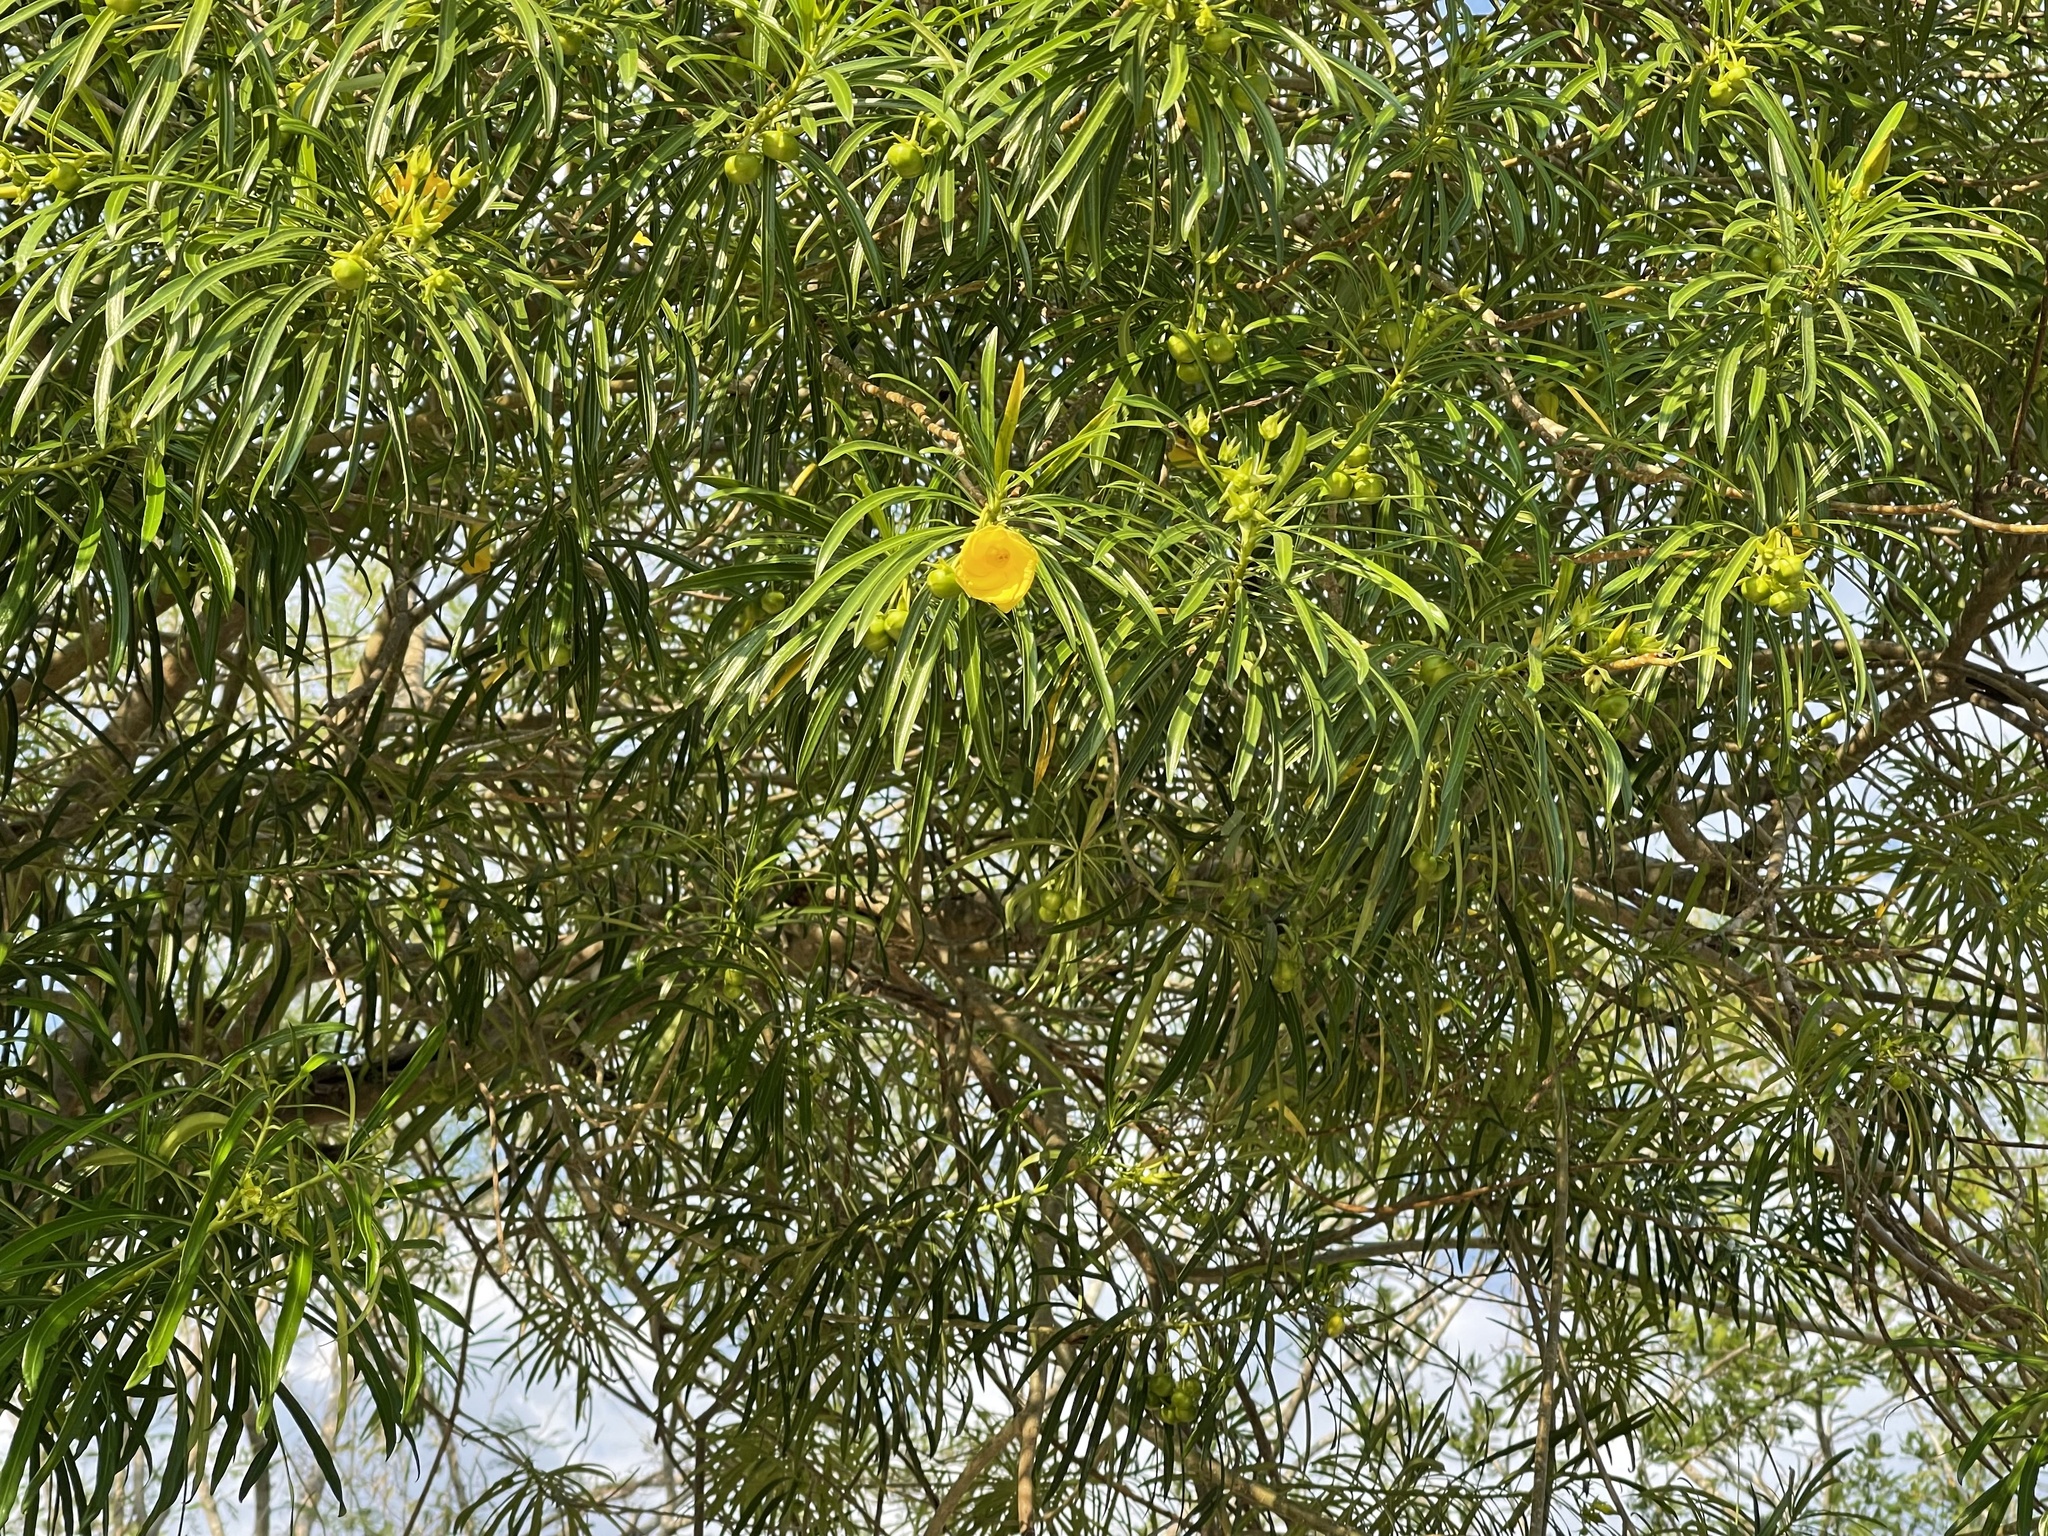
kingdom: Plantae
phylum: Tracheophyta
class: Magnoliopsida
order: Gentianales
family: Apocynaceae
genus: Cascabela
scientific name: Cascabela thevetia
